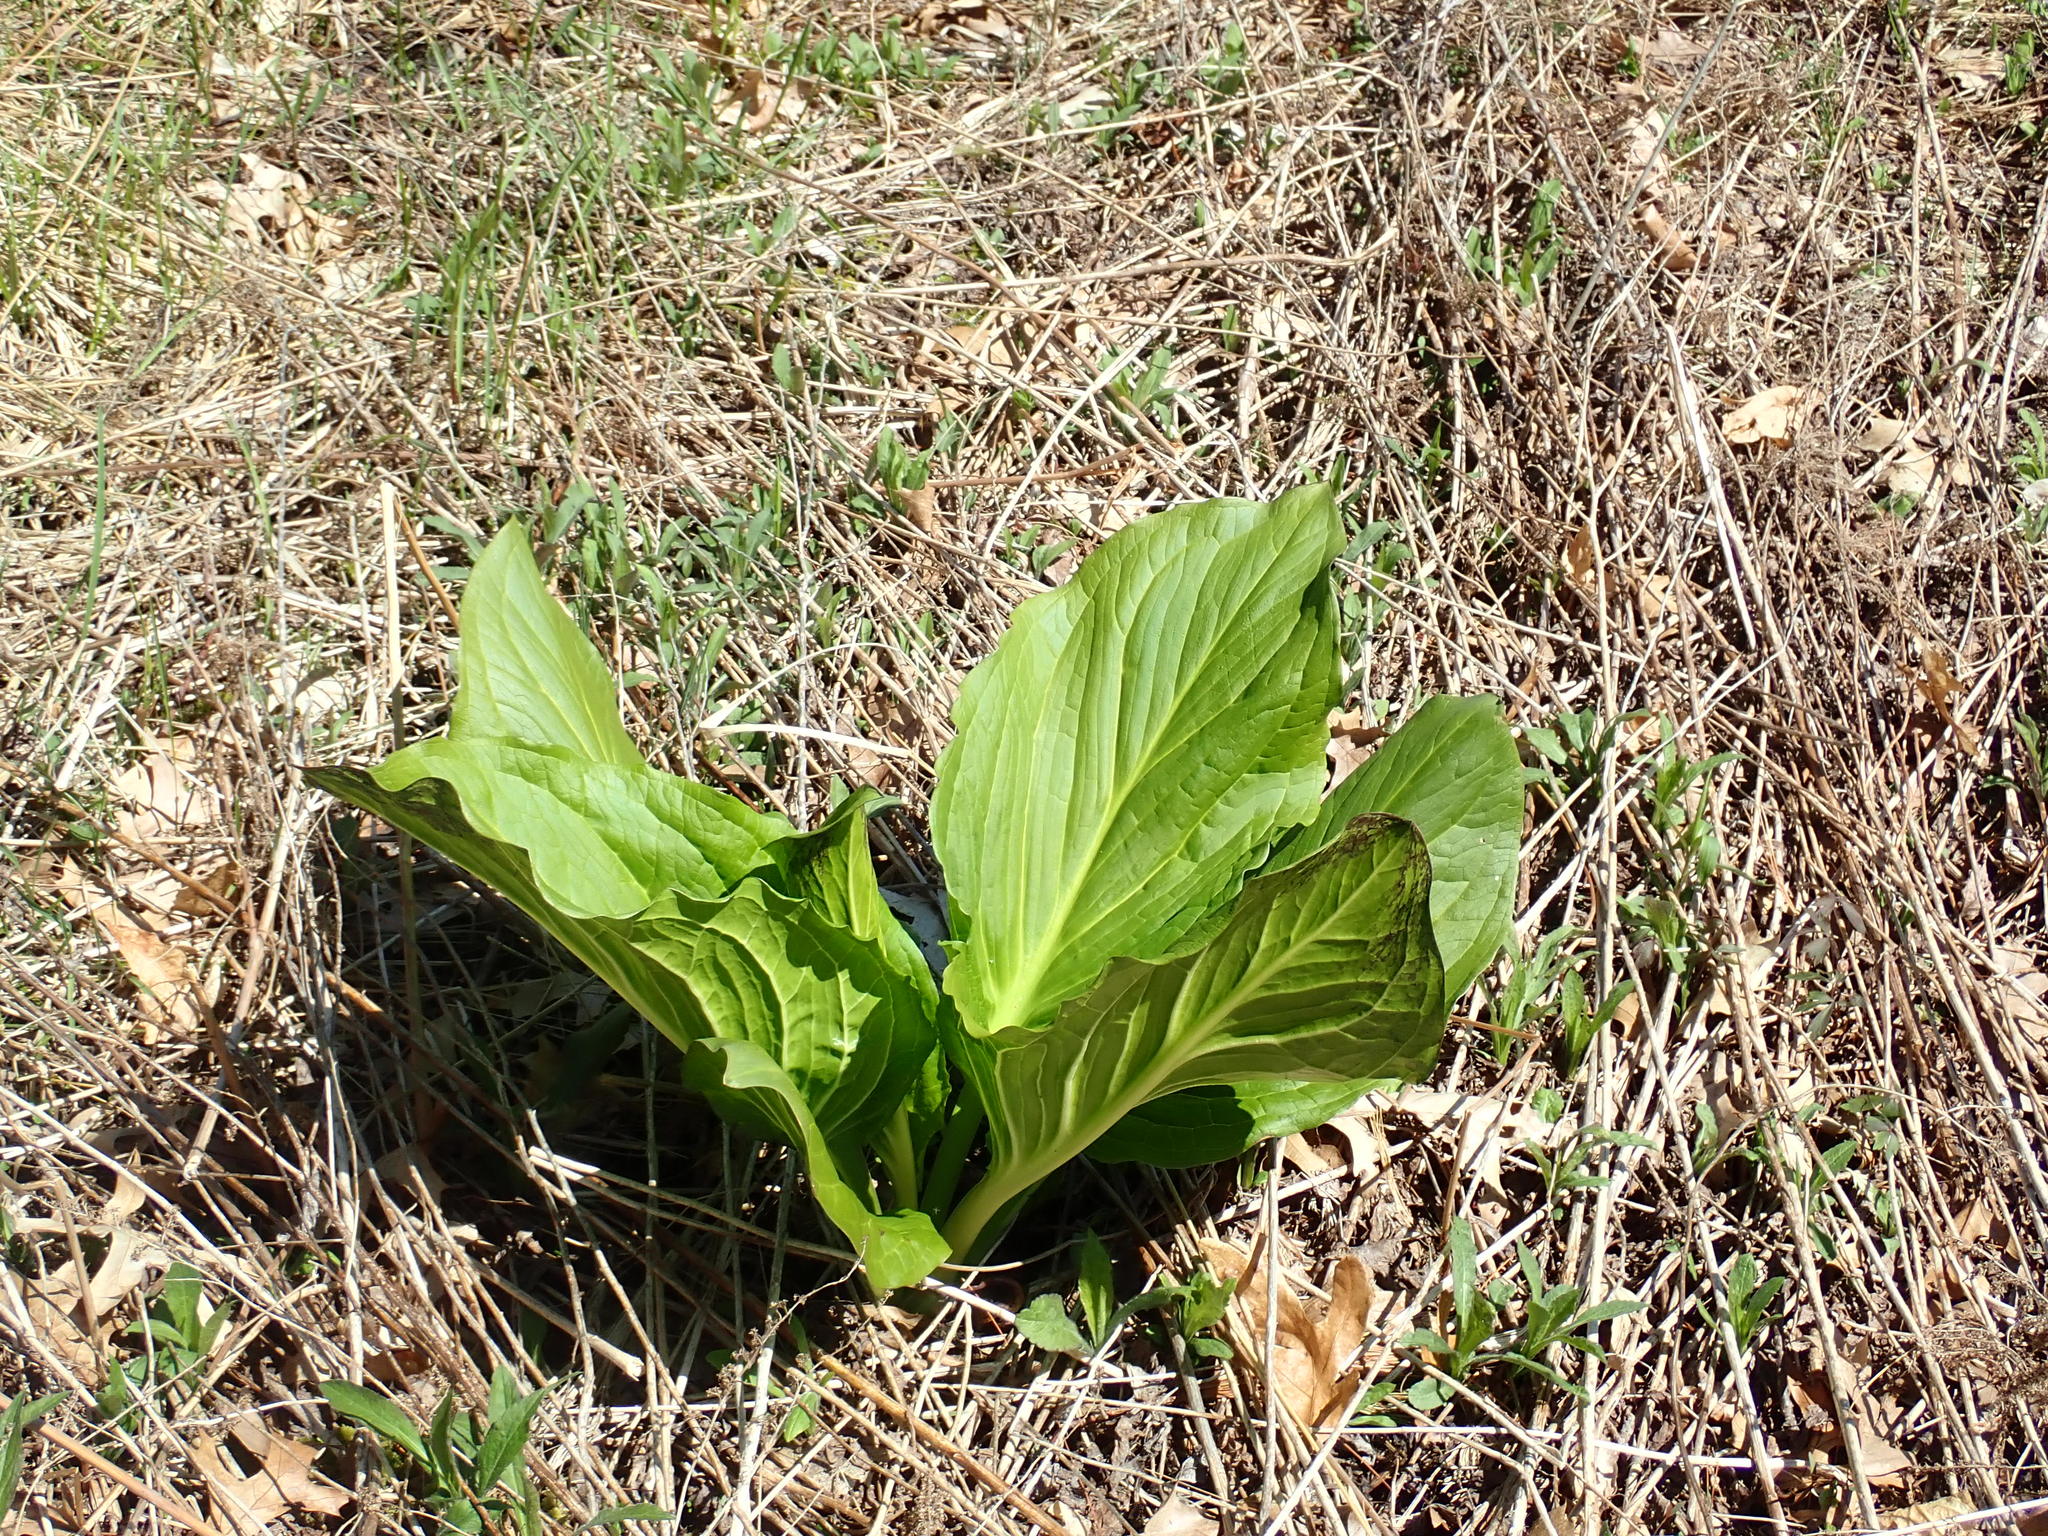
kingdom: Plantae
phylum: Tracheophyta
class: Liliopsida
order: Alismatales
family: Araceae
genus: Symplocarpus
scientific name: Symplocarpus foetidus
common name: Eastern skunk cabbage
